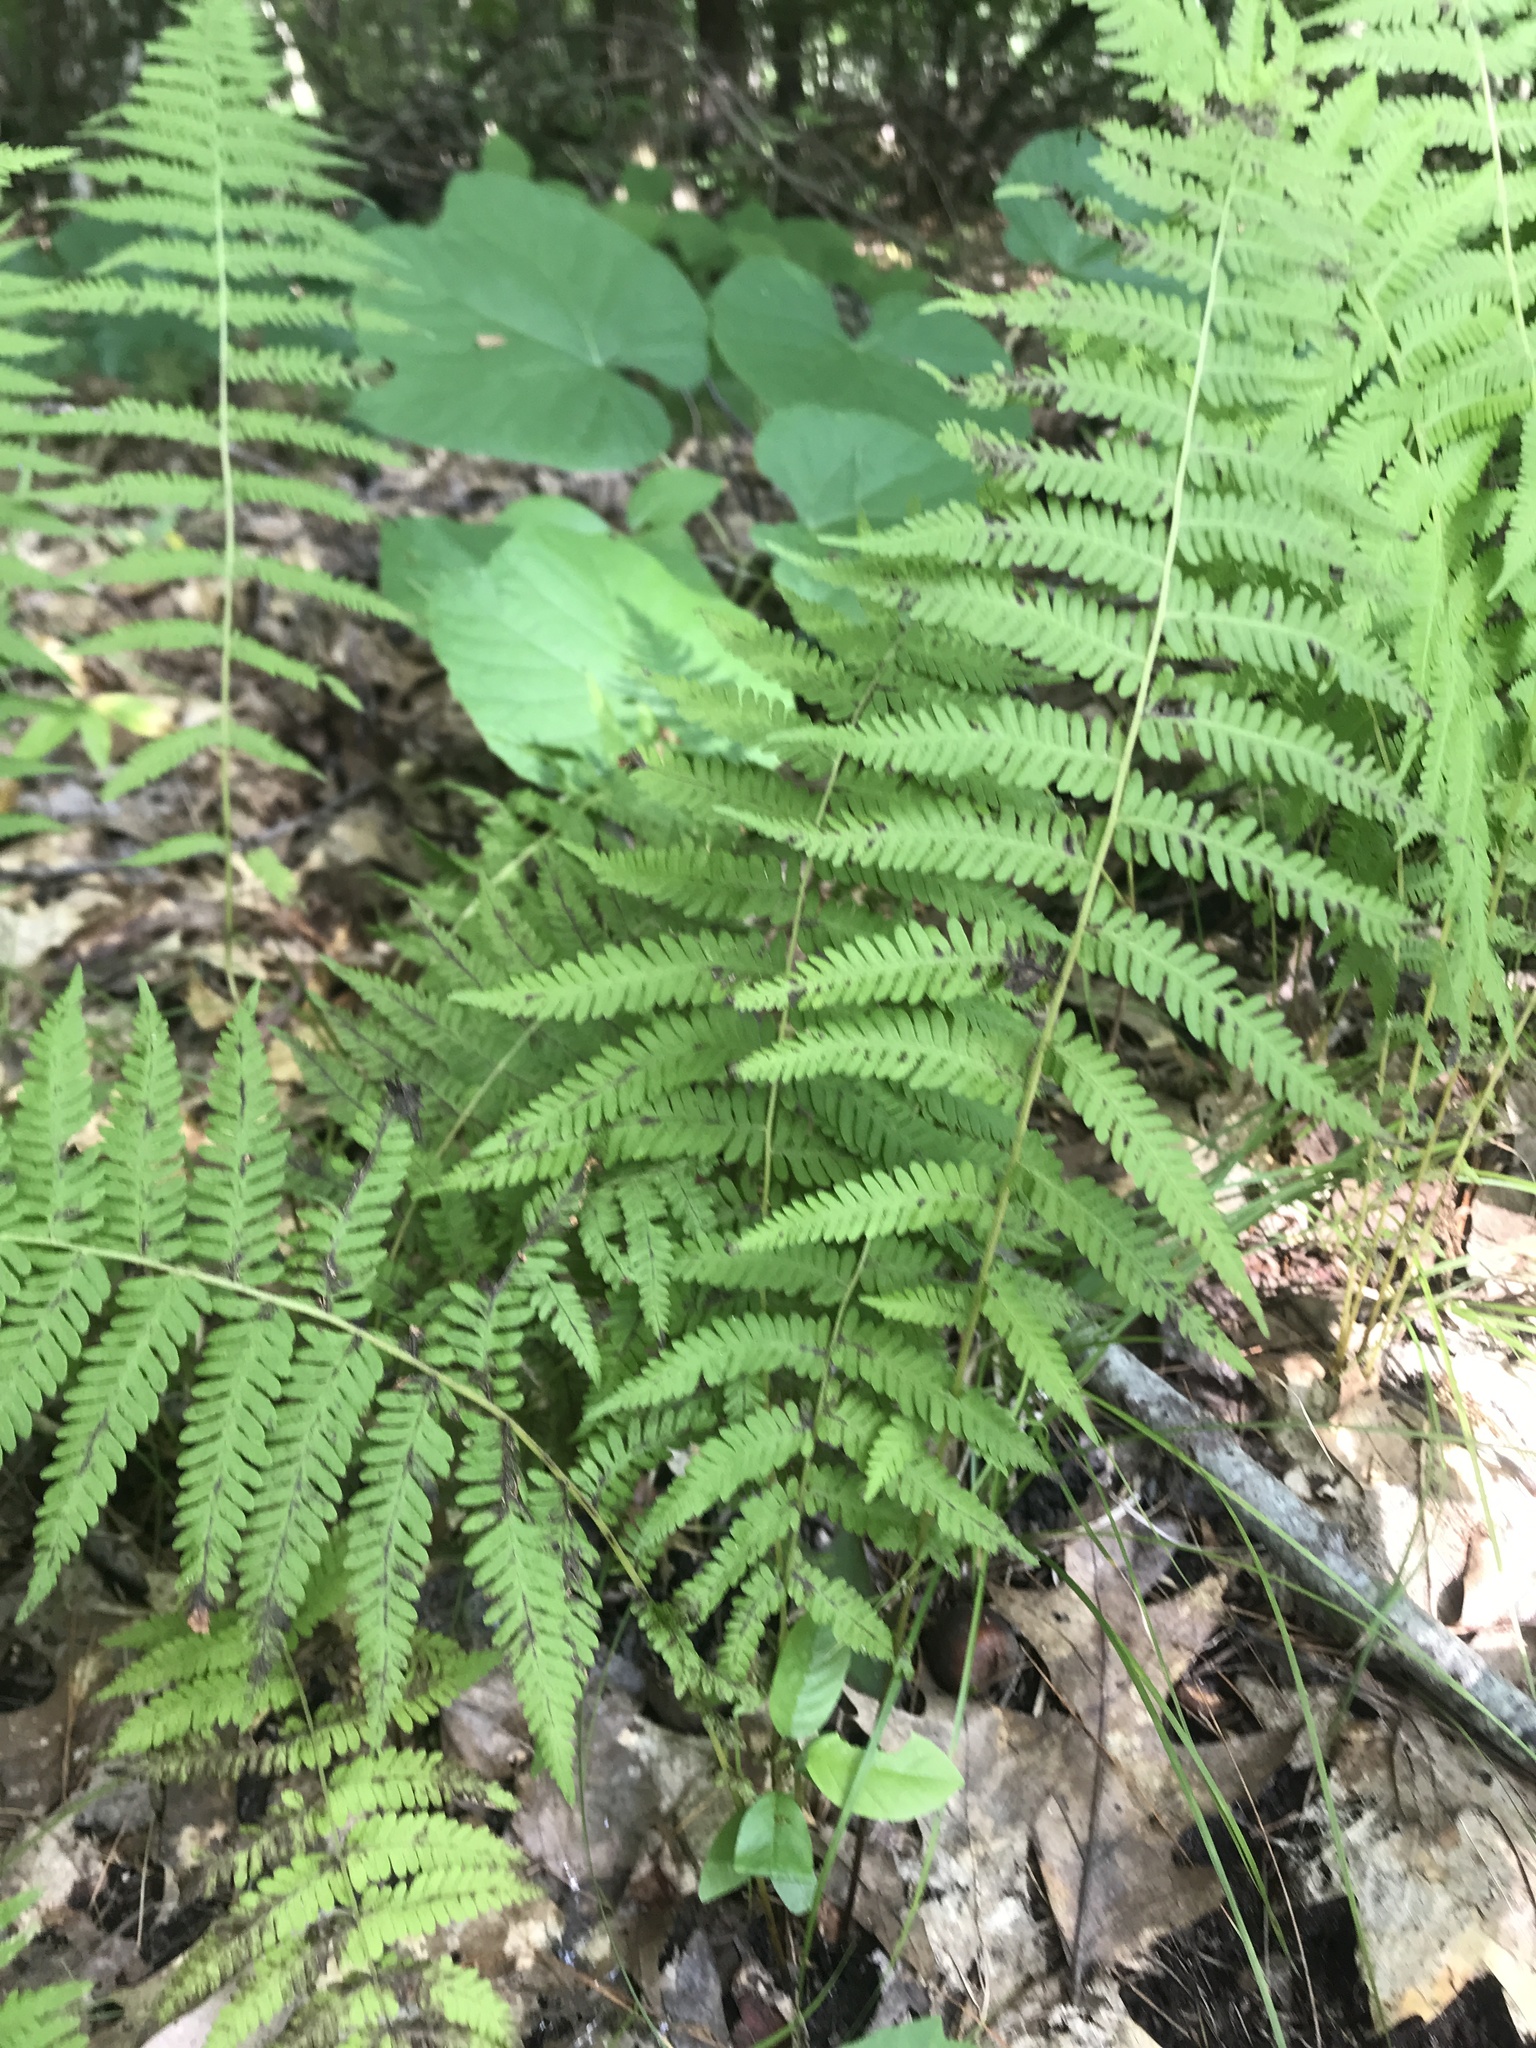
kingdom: Plantae
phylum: Tracheophyta
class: Polypodiopsida
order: Polypodiales
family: Thelypteridaceae
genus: Amauropelta
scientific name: Amauropelta noveboracensis
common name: New york fern
